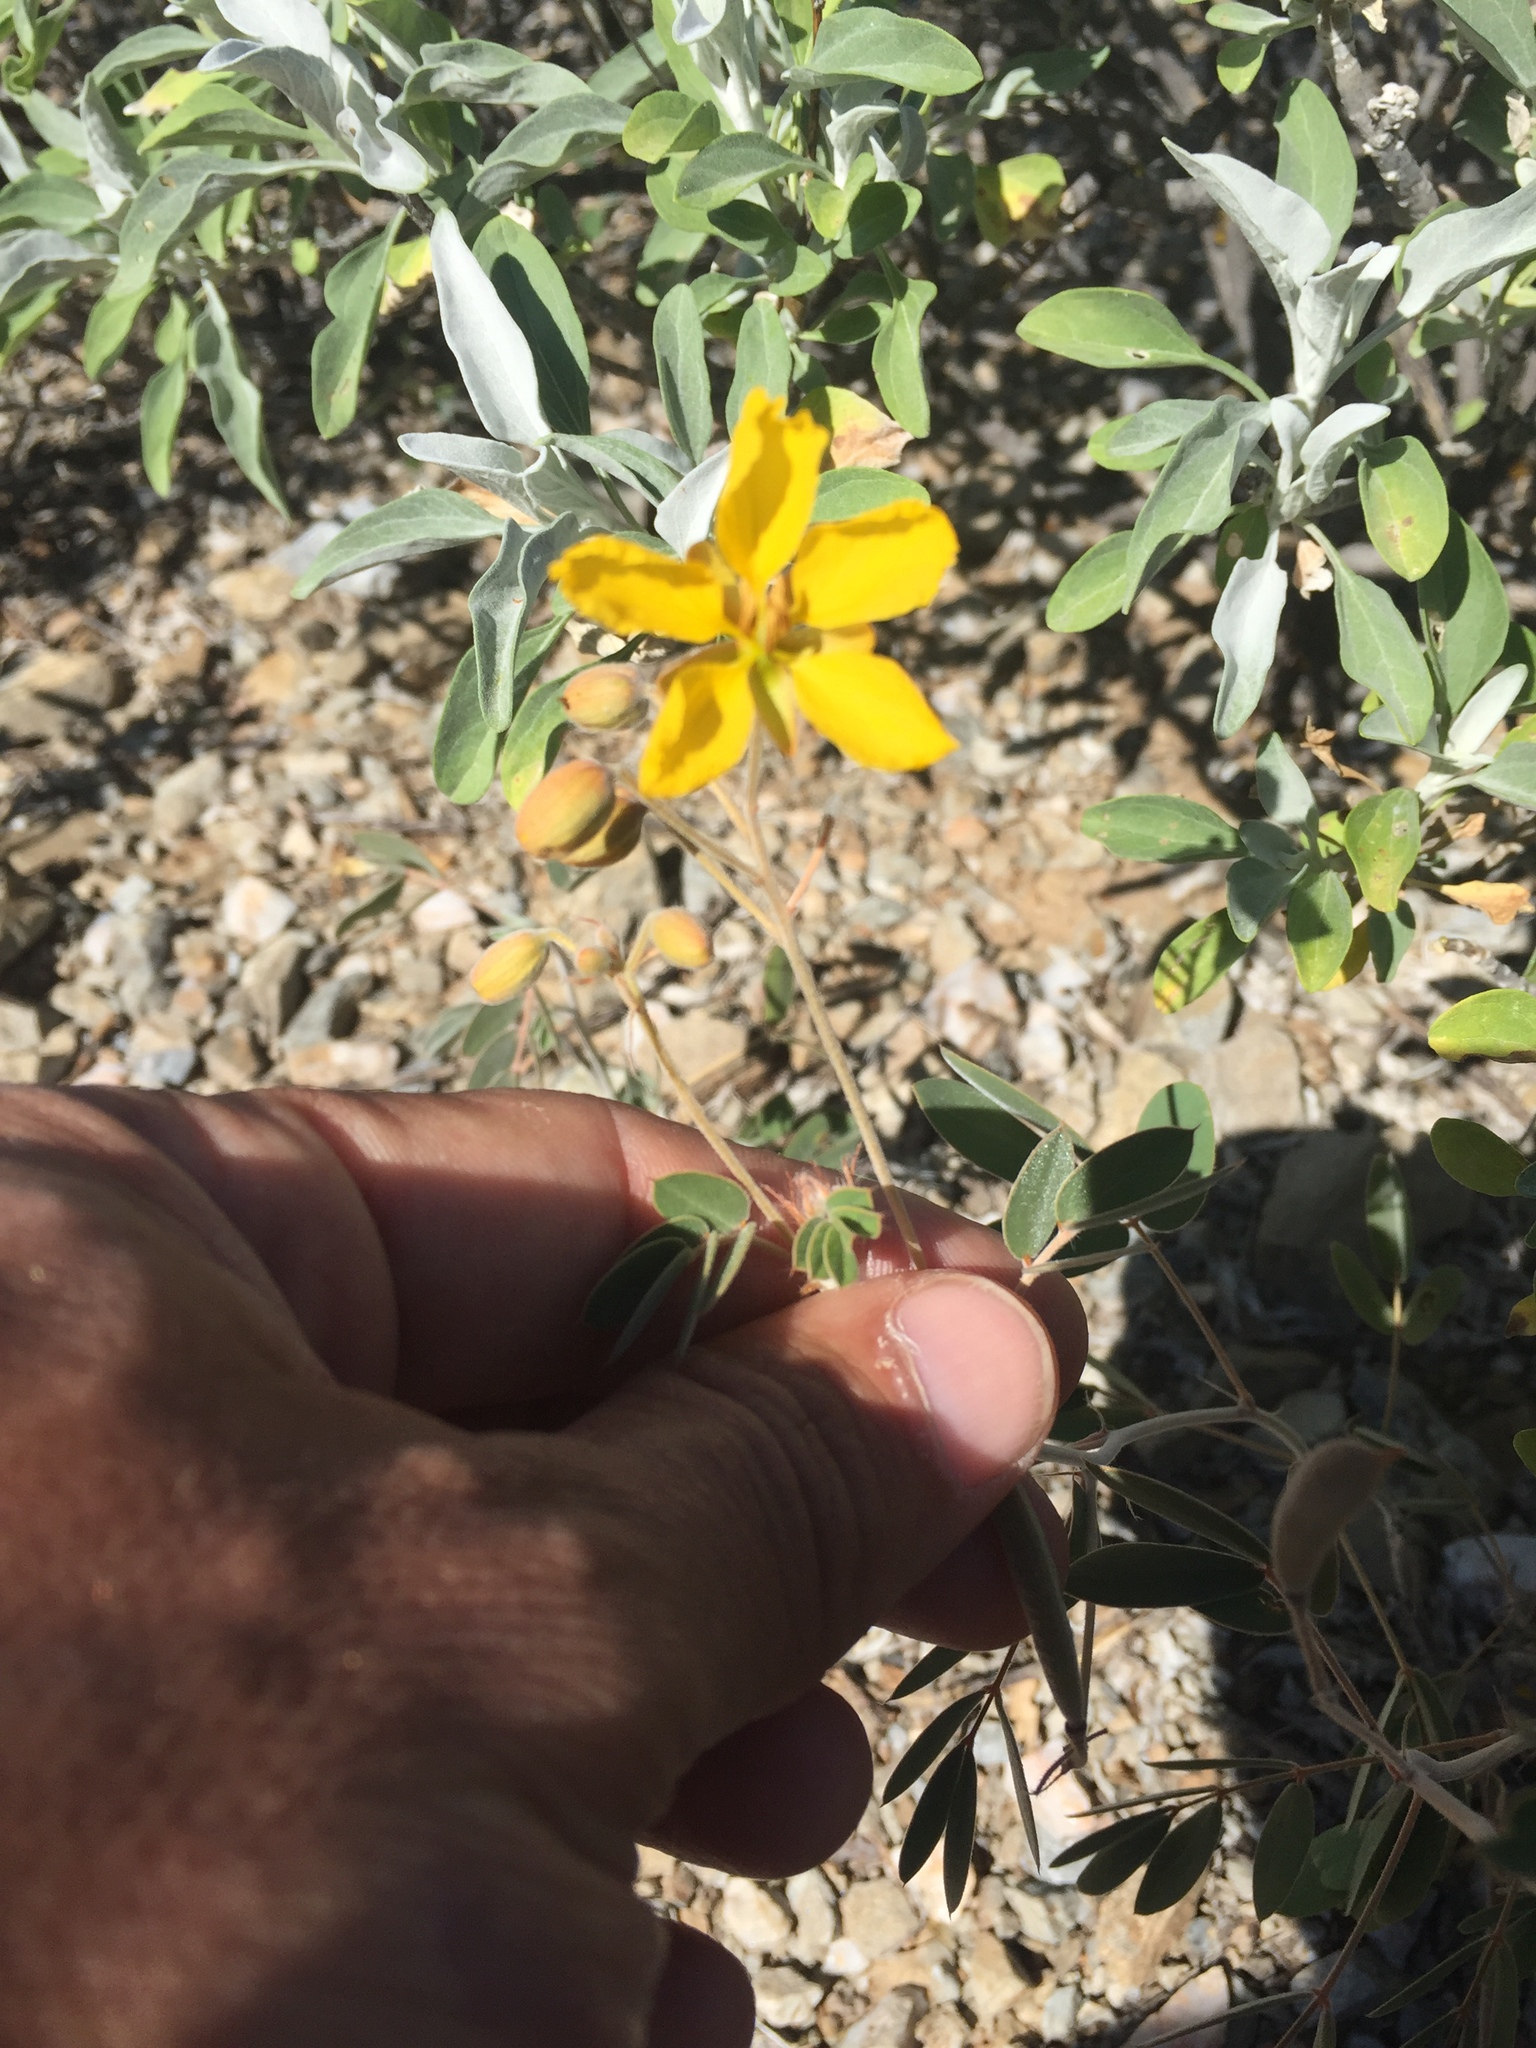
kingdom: Plantae
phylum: Tracheophyta
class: Magnoliopsida
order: Fabales
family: Fabaceae
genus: Senna
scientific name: Senna covesii
